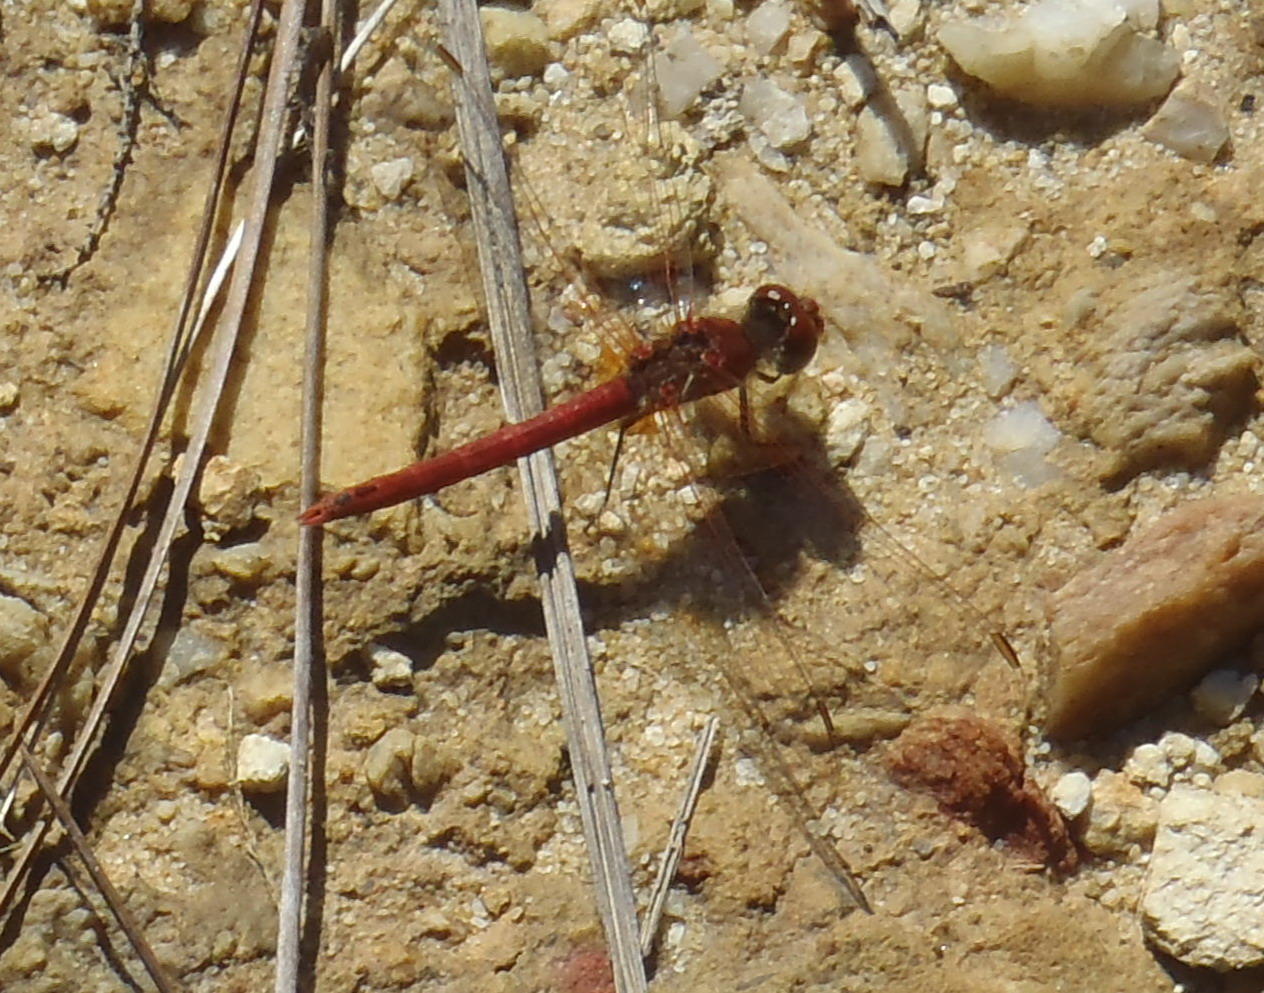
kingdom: Animalia
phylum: Arthropoda
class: Insecta
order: Odonata
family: Libellulidae
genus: Sympetrum
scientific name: Sympetrum fonscolombii
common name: Red-veined darter
